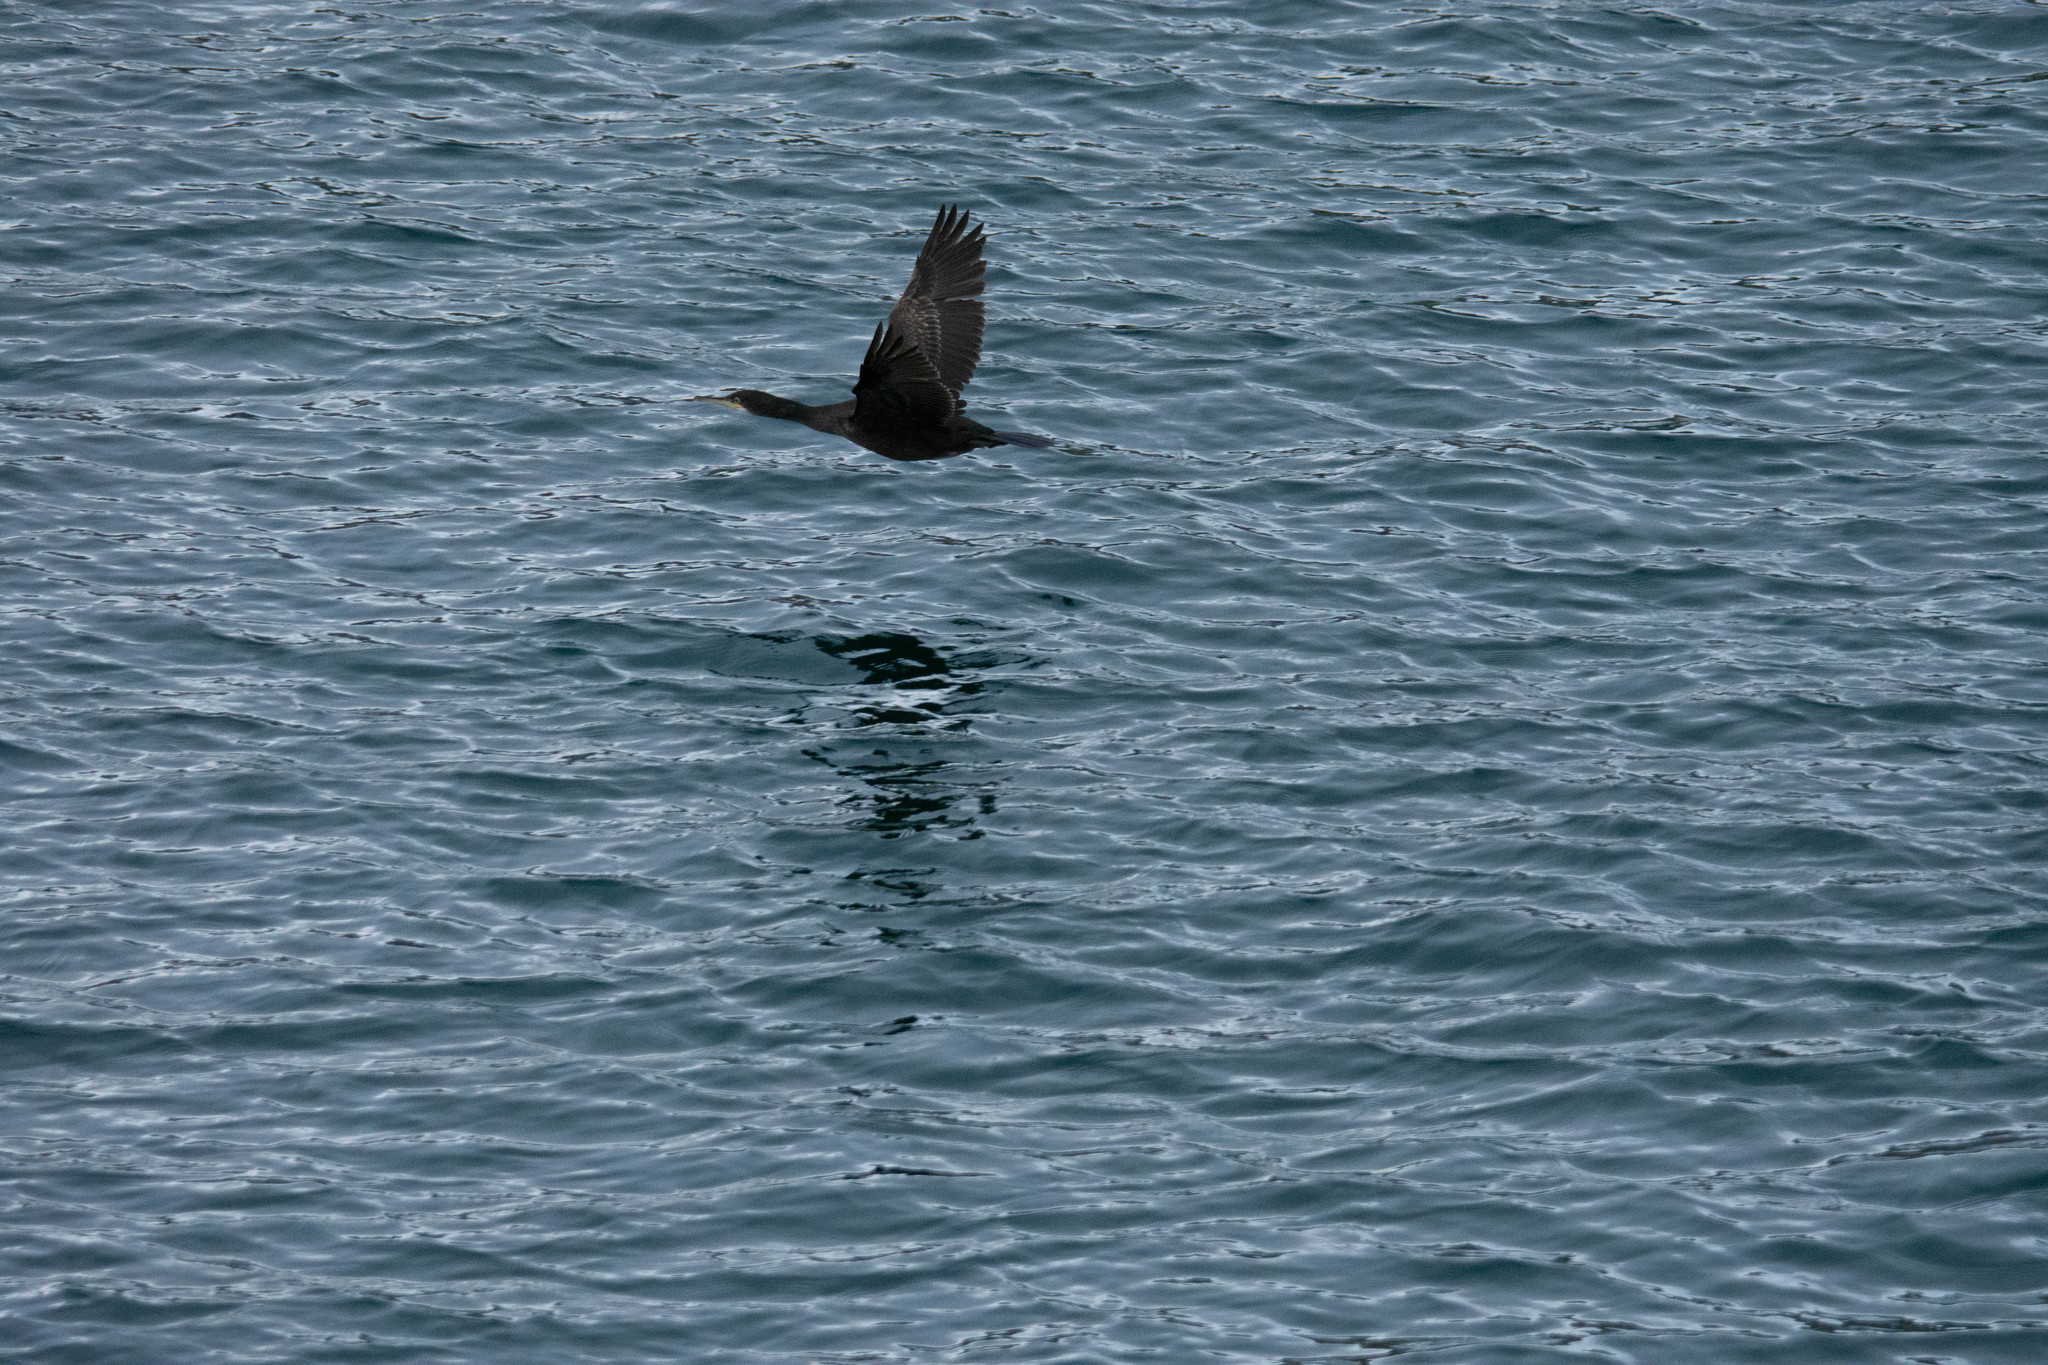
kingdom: Animalia
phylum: Chordata
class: Aves
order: Suliformes
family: Phalacrocoracidae
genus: Phalacrocorax
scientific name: Phalacrocorax aristotelis
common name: European shag
